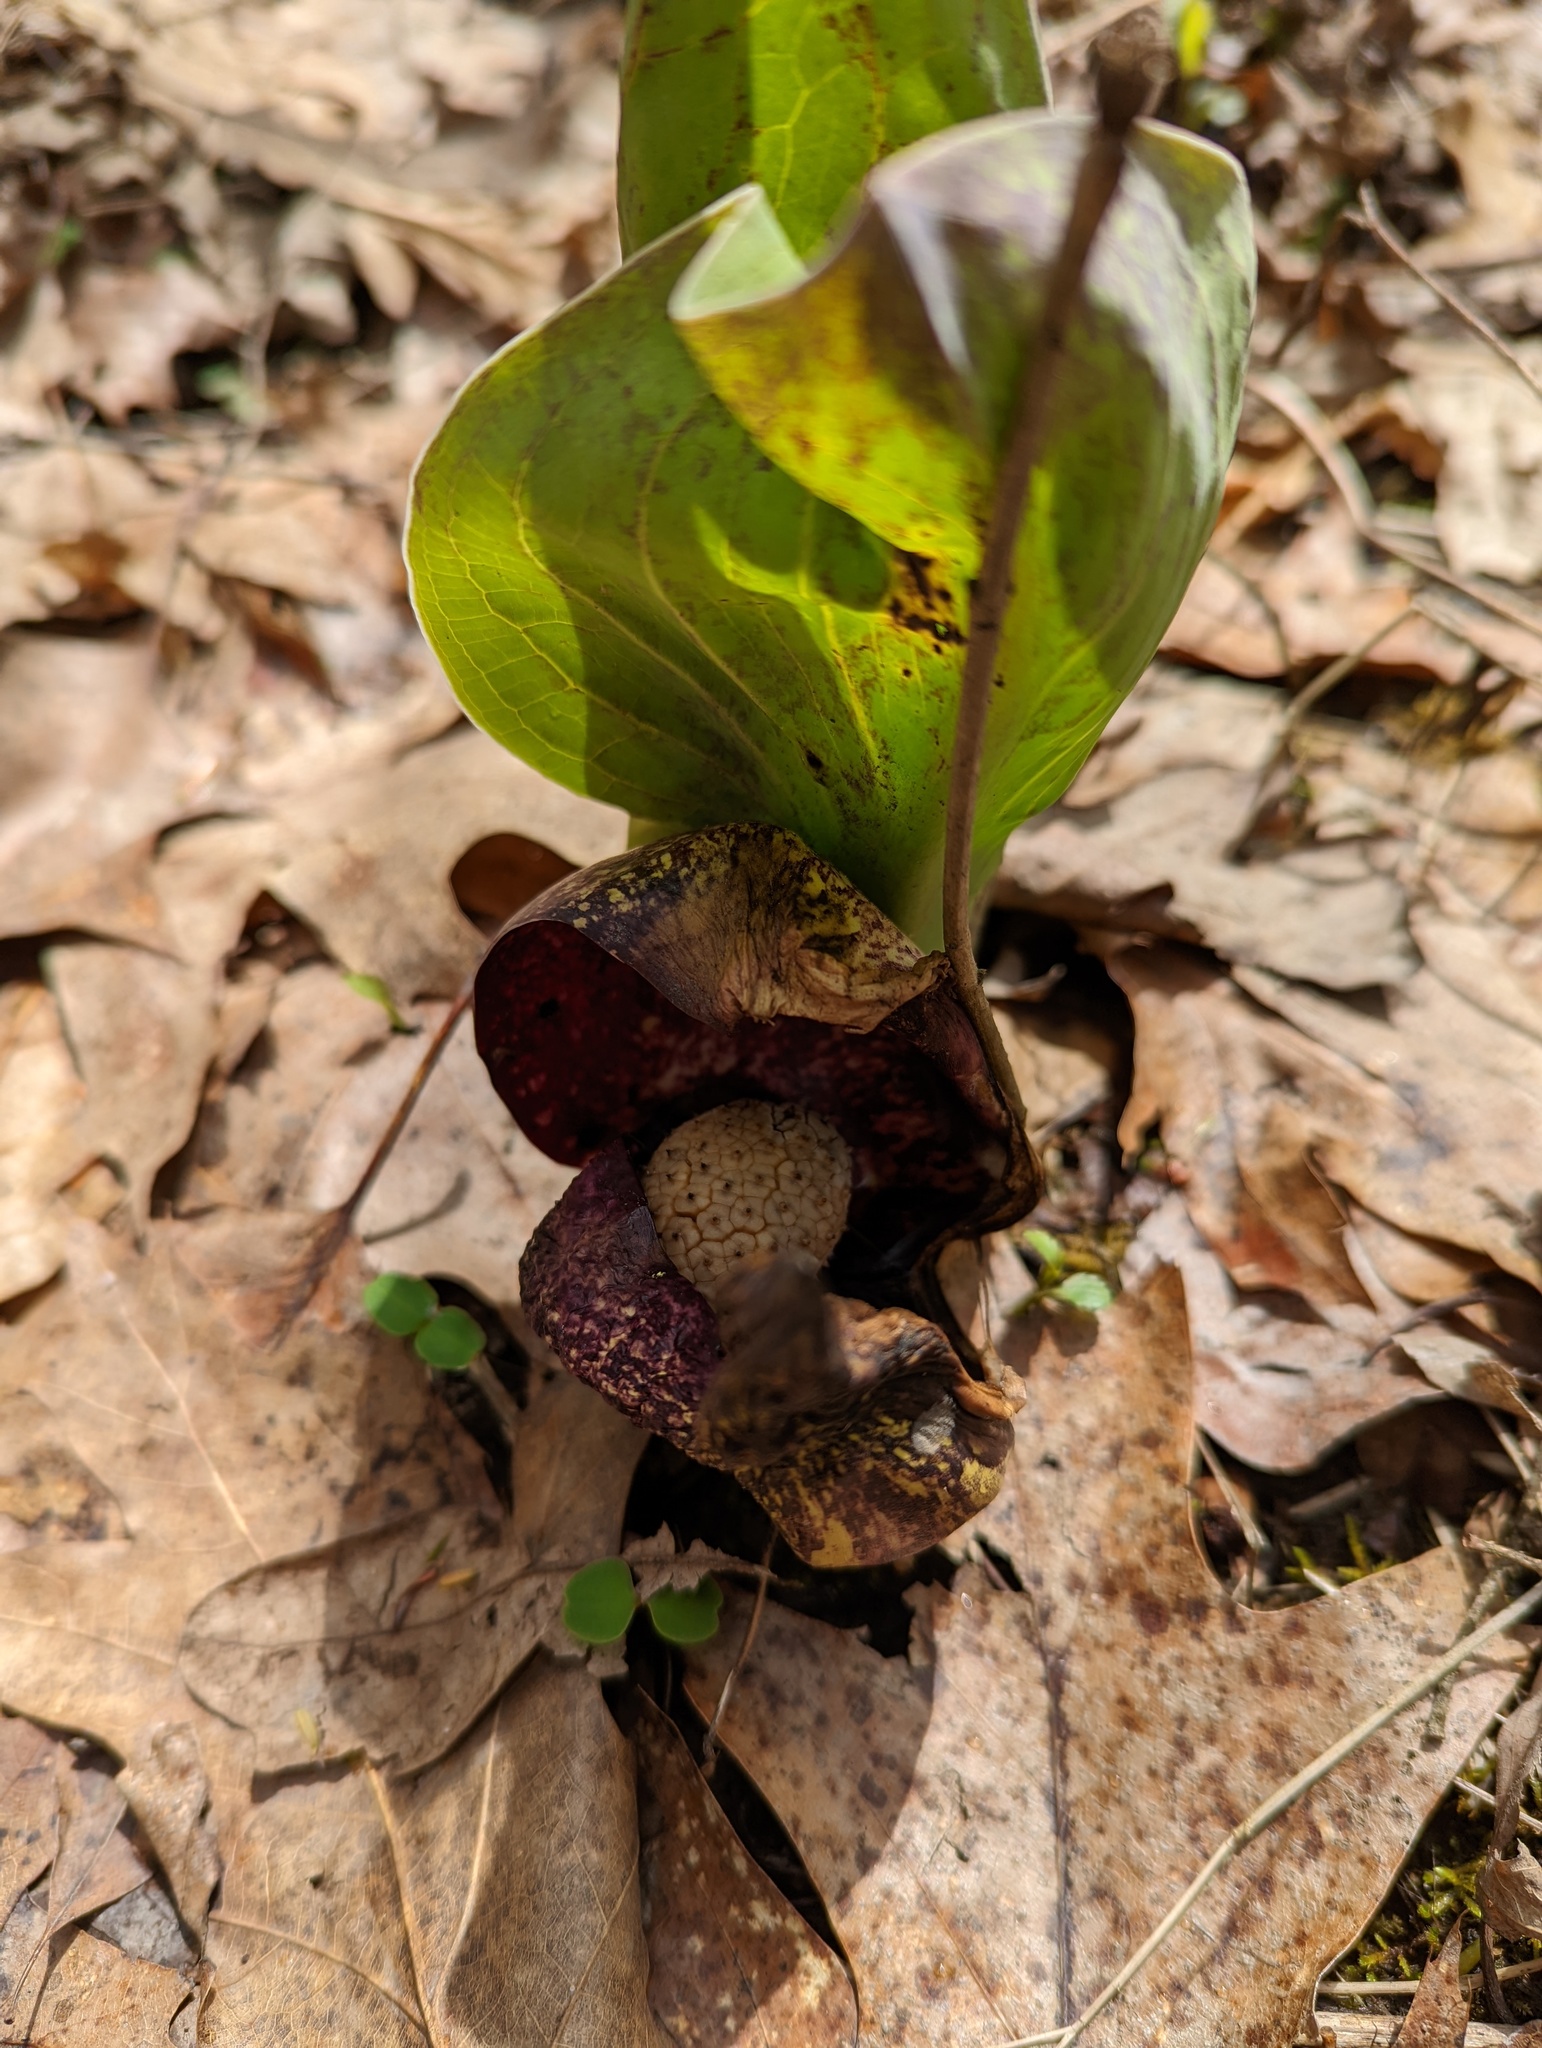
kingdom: Plantae
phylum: Tracheophyta
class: Liliopsida
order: Alismatales
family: Araceae
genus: Symplocarpus
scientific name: Symplocarpus foetidus
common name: Eastern skunk cabbage
